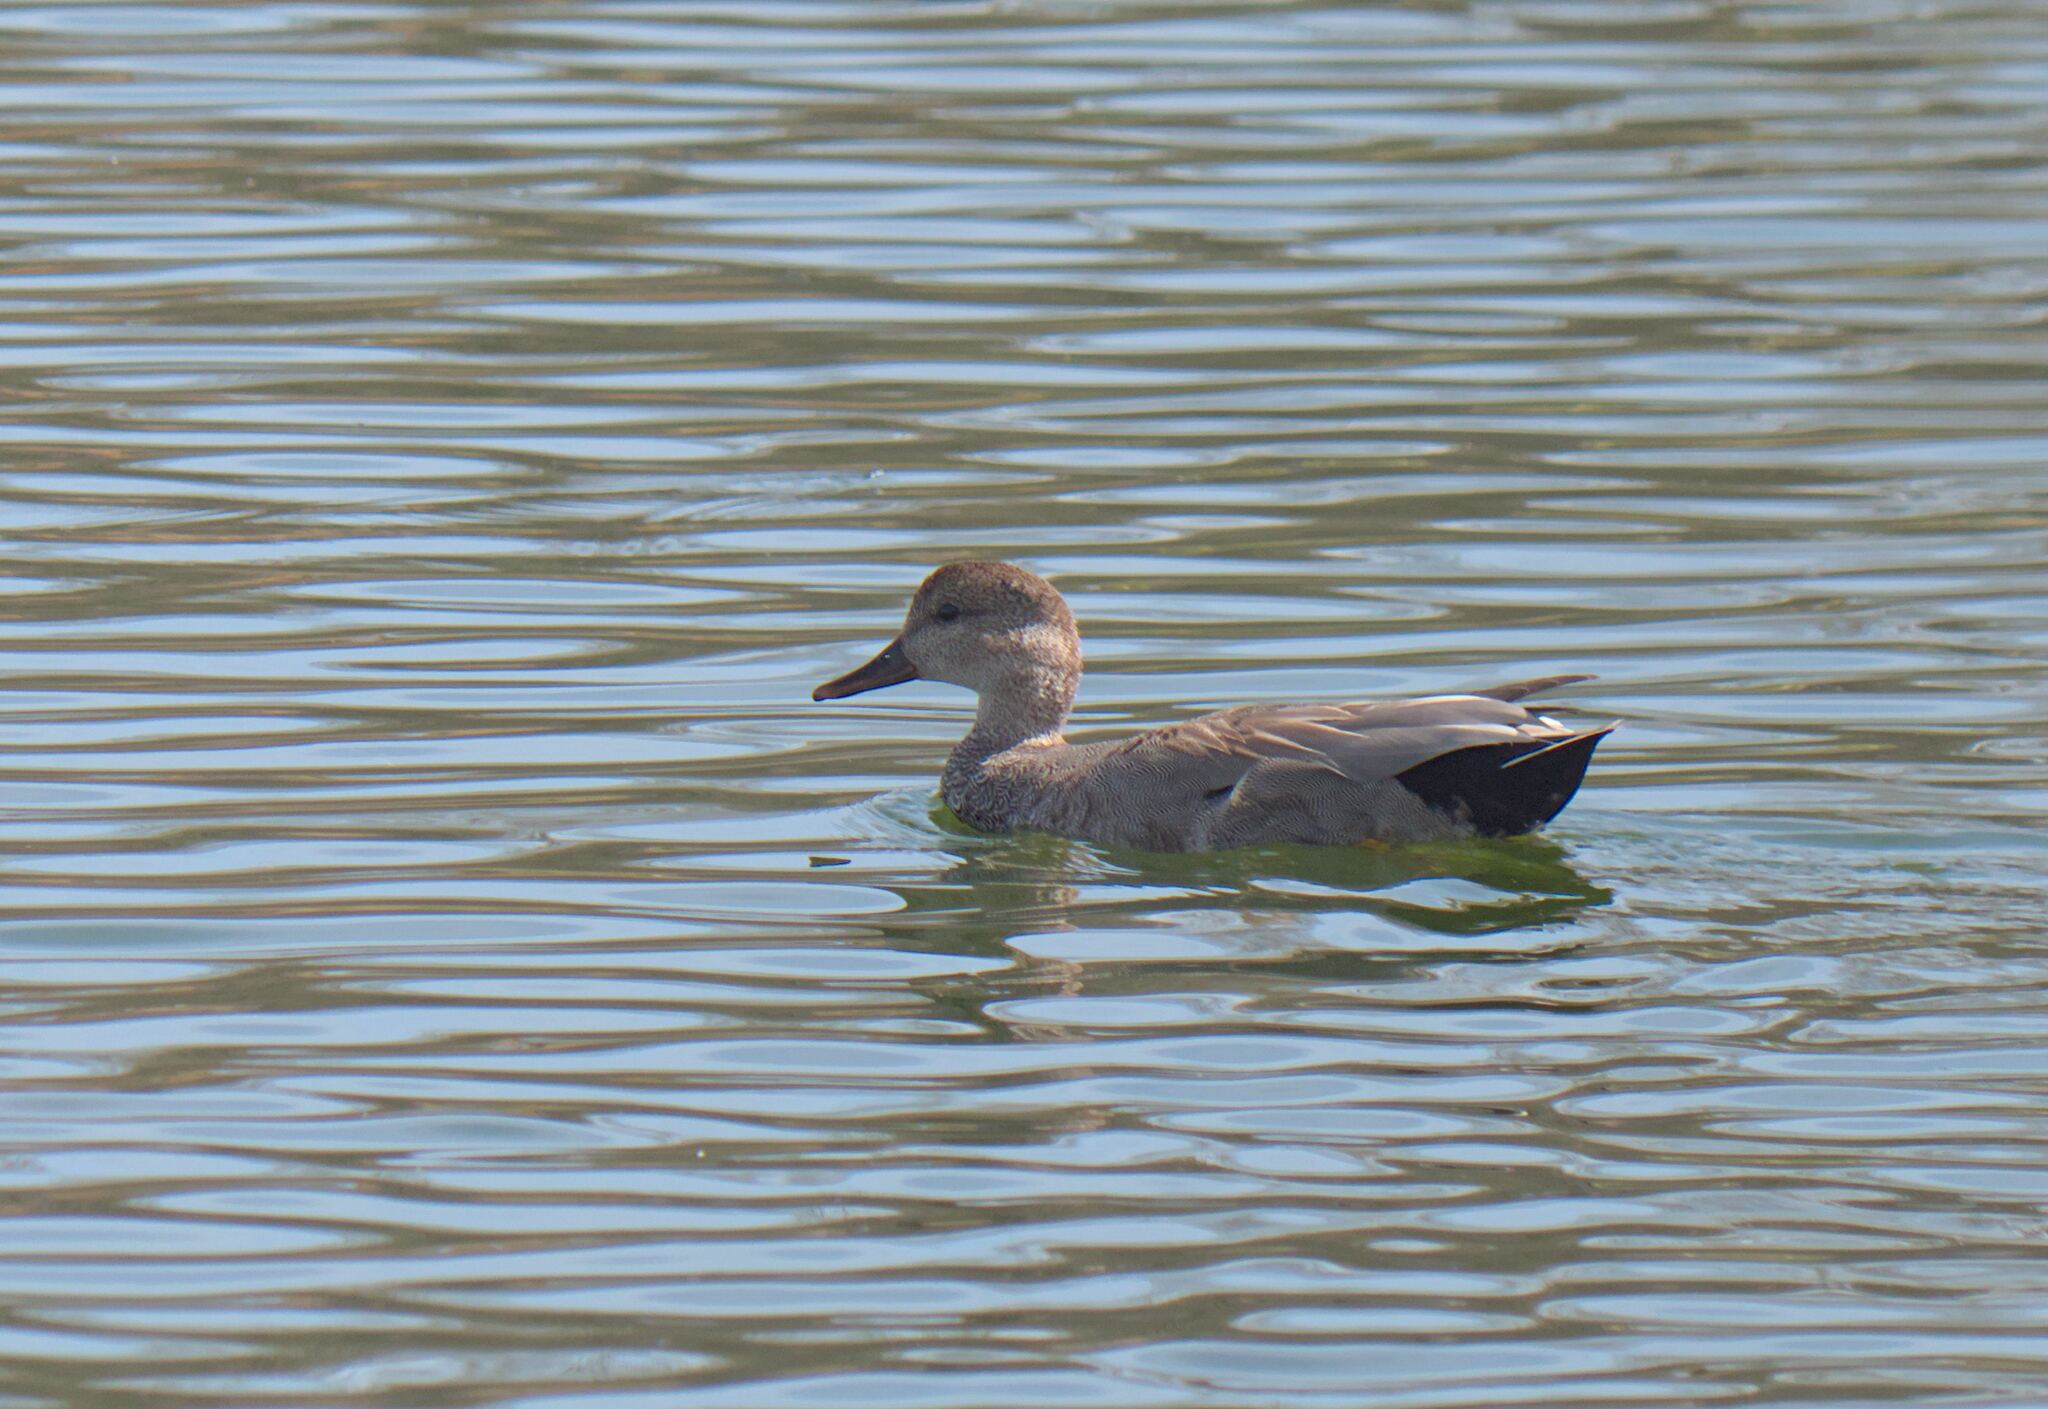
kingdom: Animalia
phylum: Chordata
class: Aves
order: Anseriformes
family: Anatidae
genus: Mareca
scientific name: Mareca strepera
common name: Gadwall
